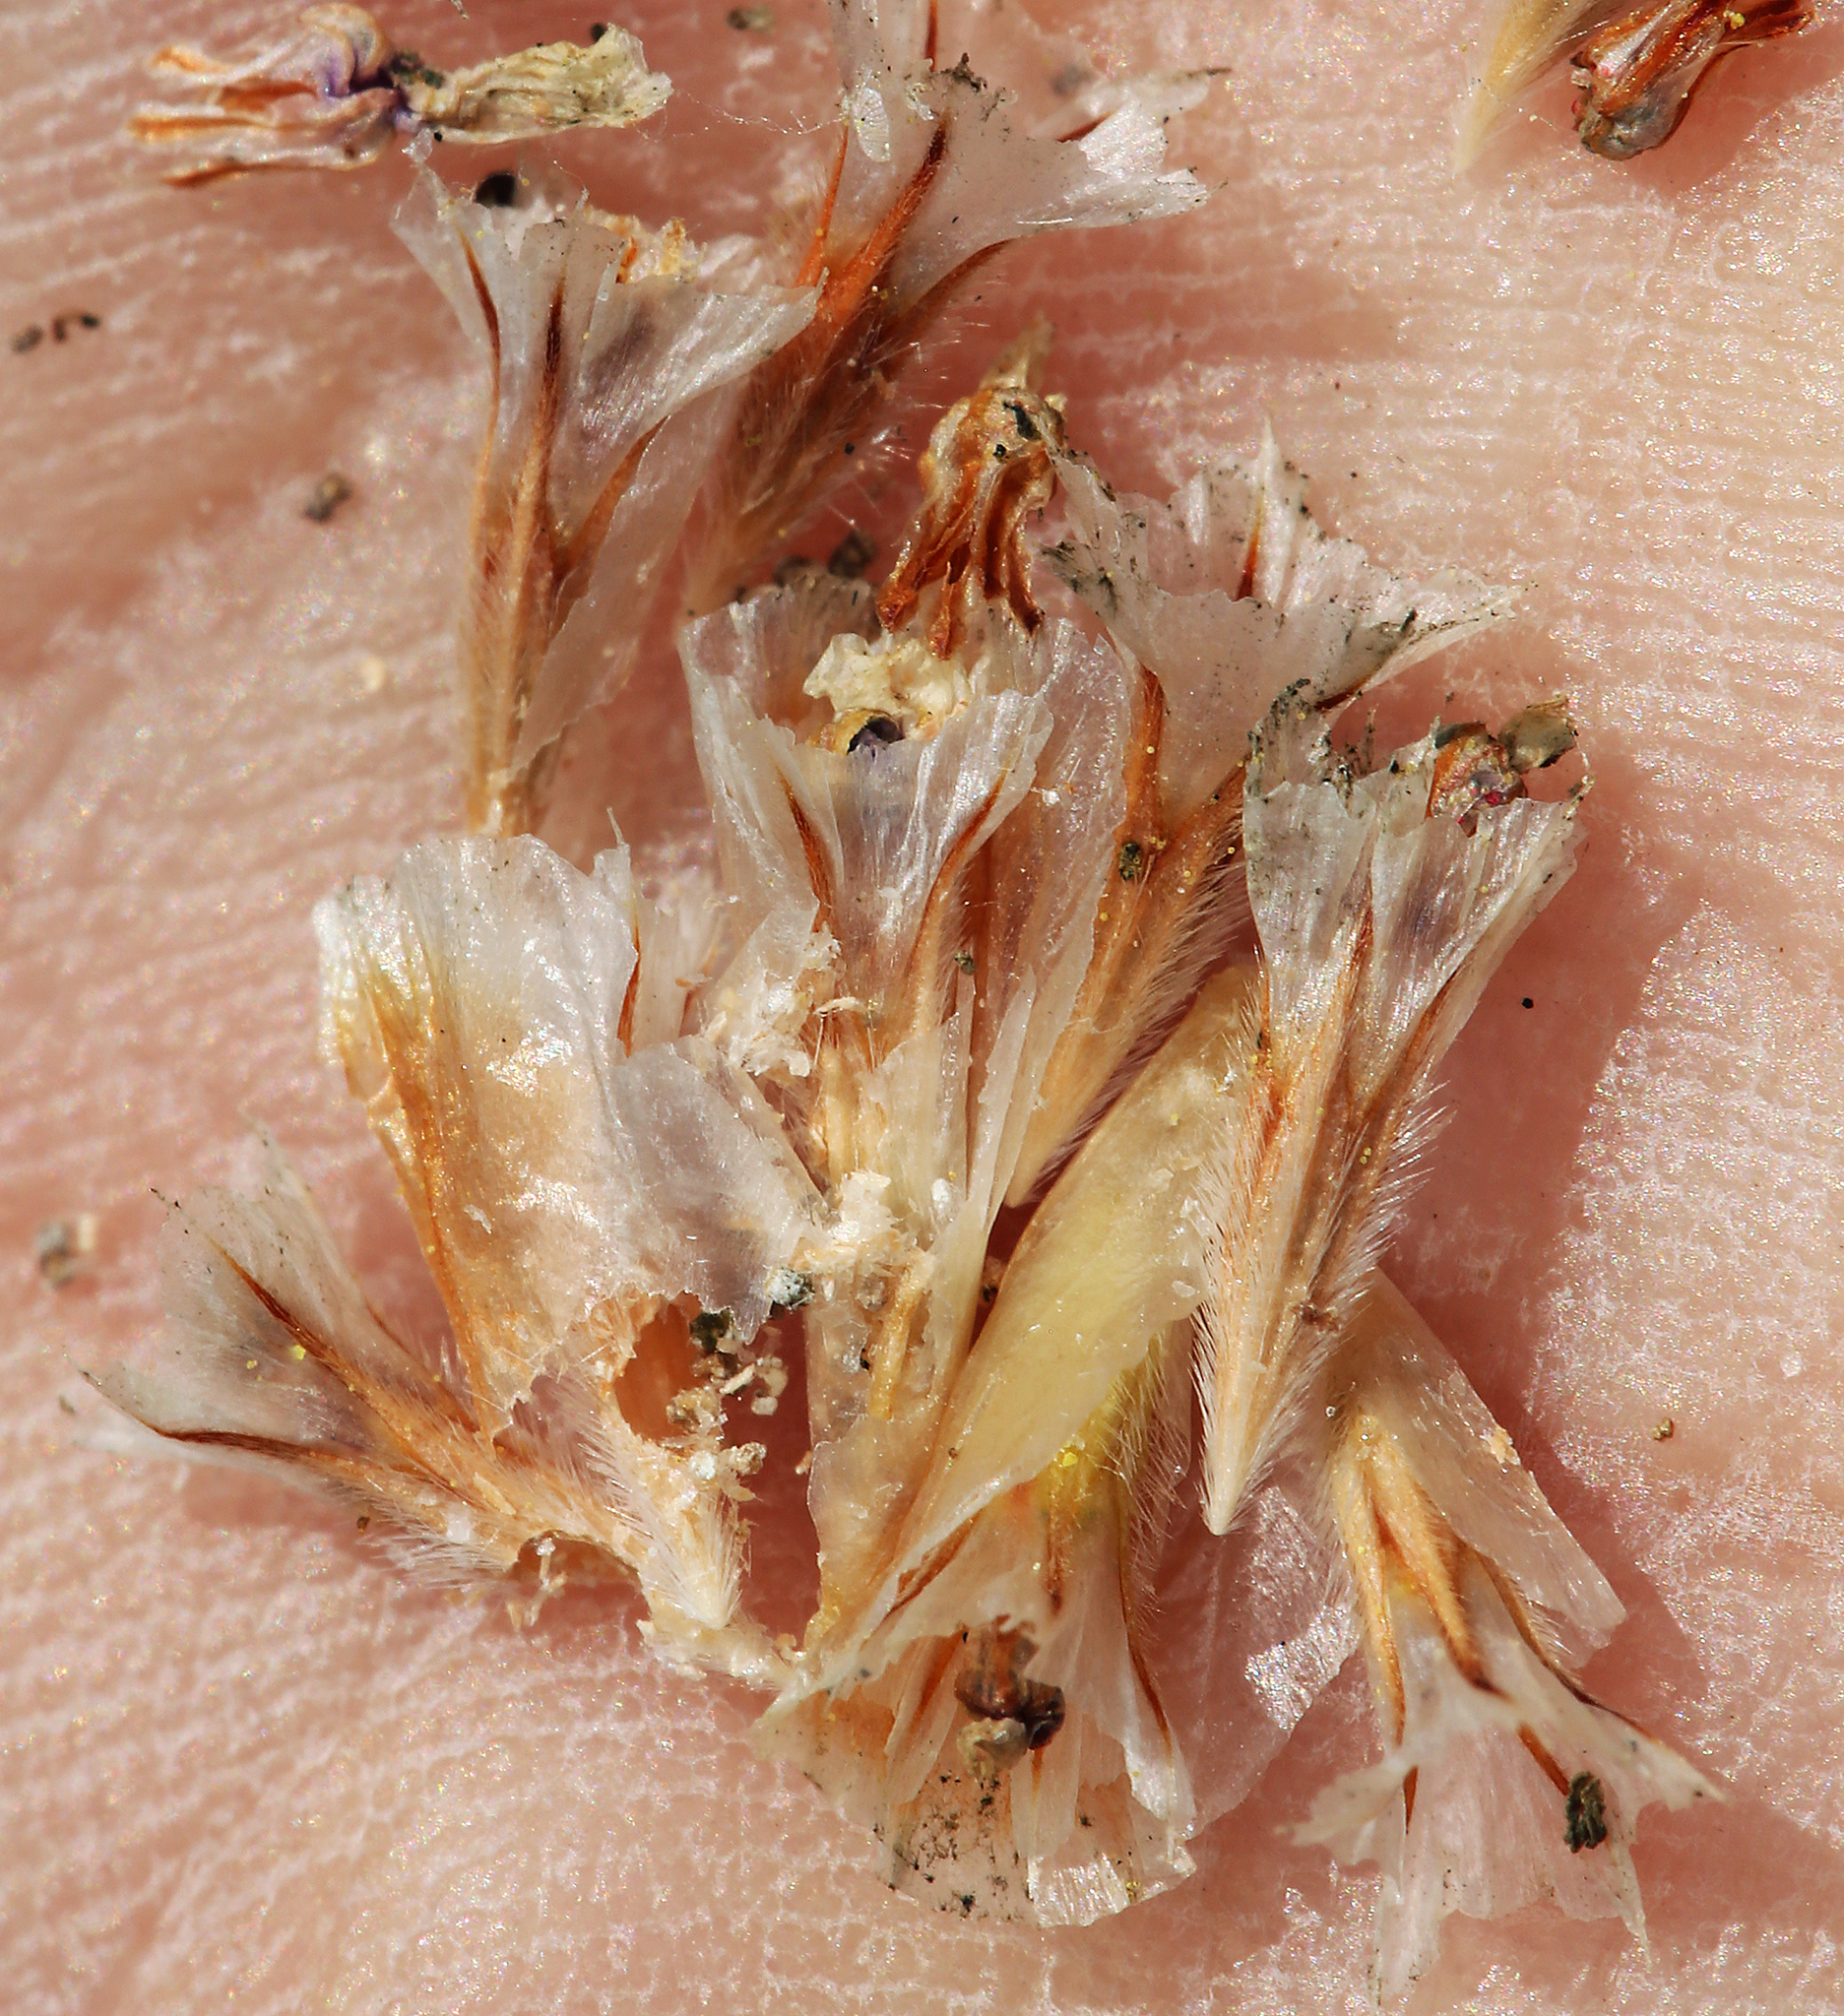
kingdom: Plantae
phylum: Tracheophyta
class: Magnoliopsida
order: Caryophyllales
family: Plumbaginaceae
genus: Armeria
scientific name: Armeria maritima
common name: Thrift
